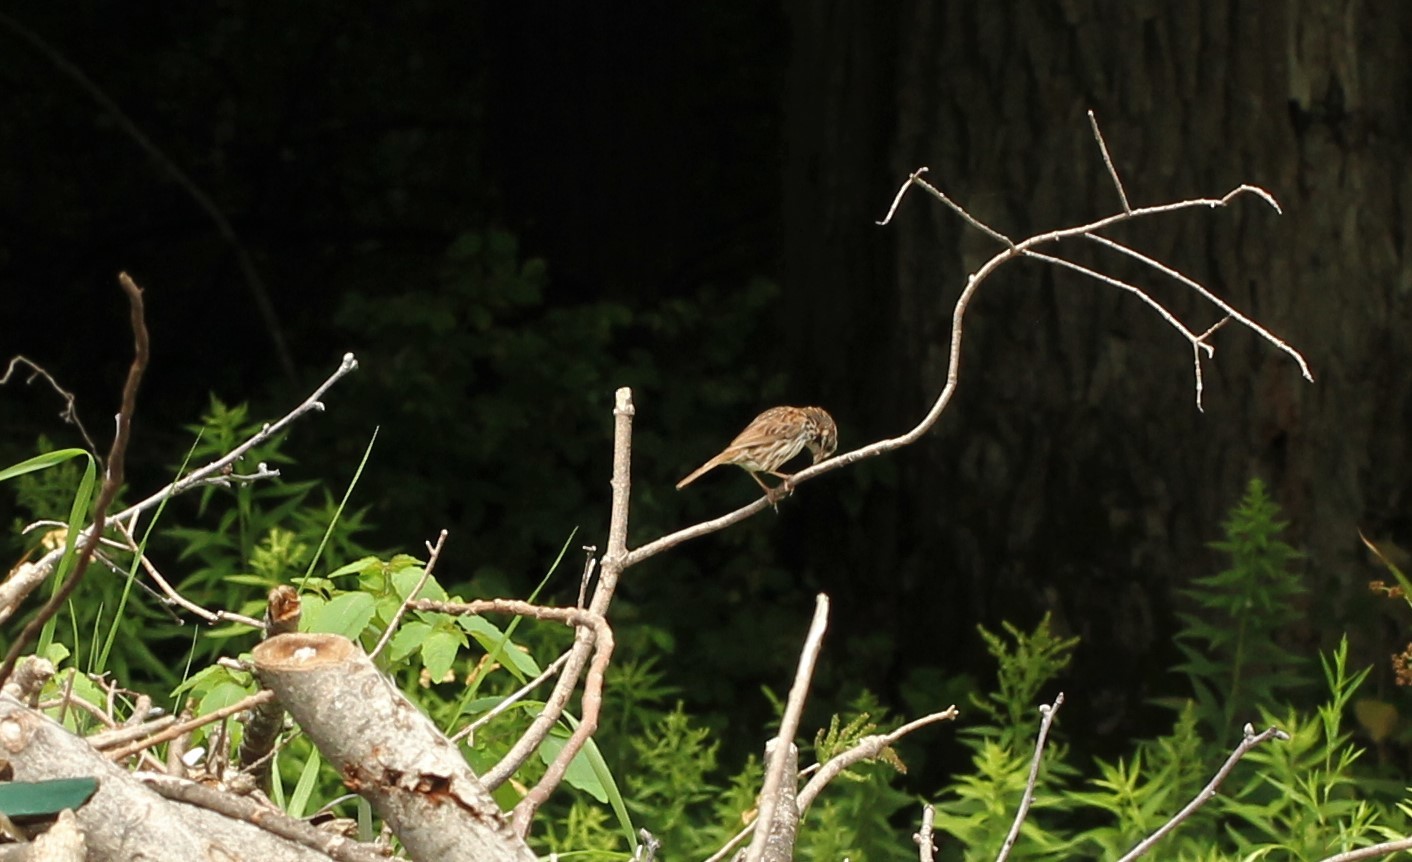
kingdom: Animalia
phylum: Chordata
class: Aves
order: Passeriformes
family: Passerellidae
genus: Melospiza
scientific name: Melospiza melodia
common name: Song sparrow
